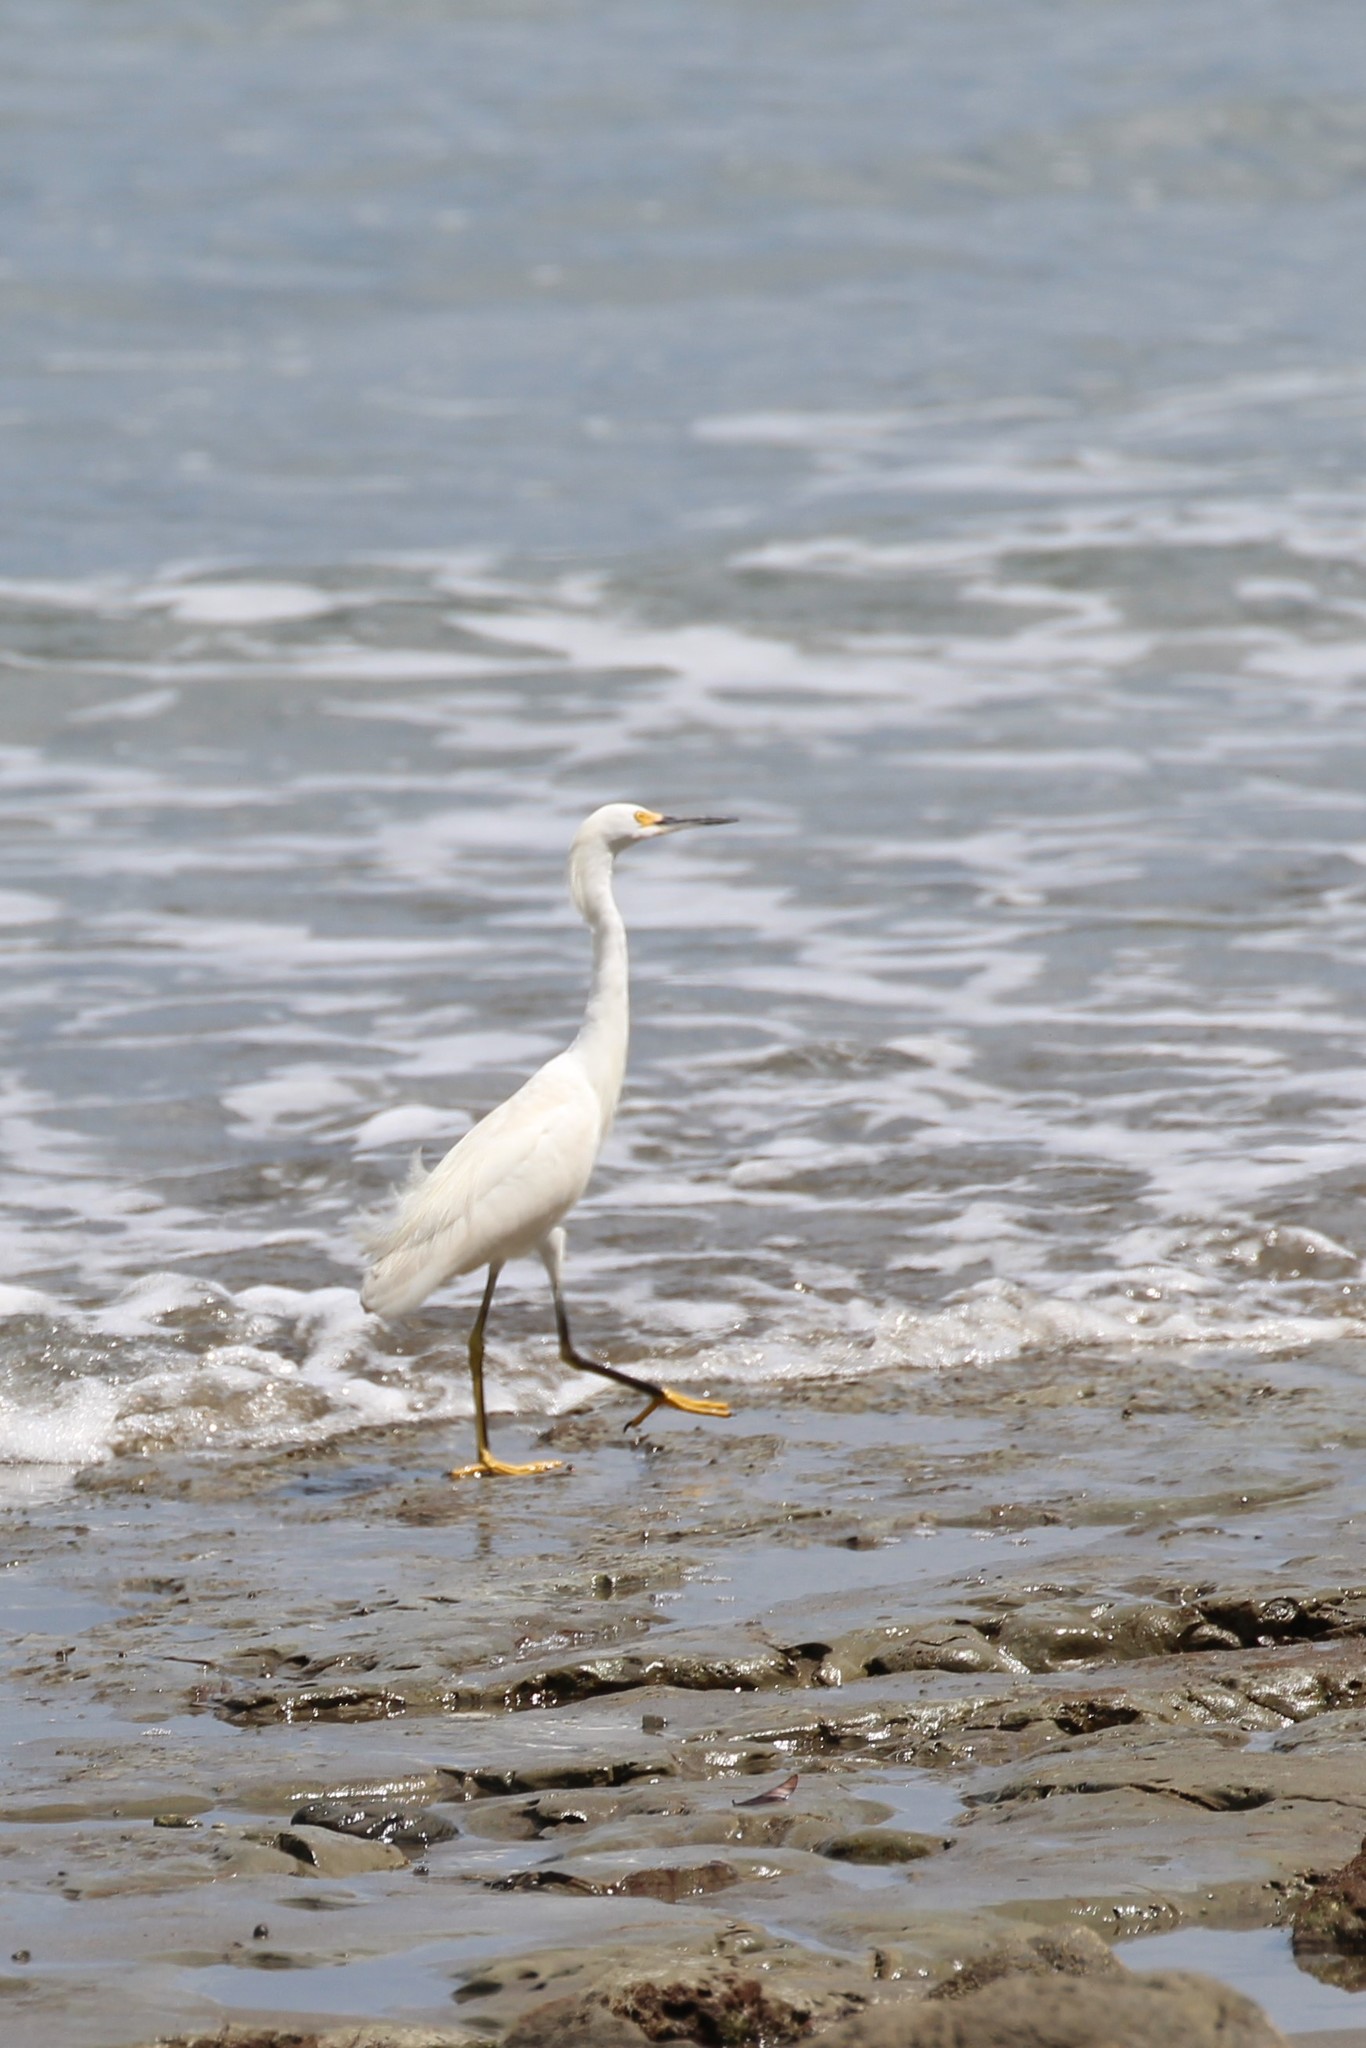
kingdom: Animalia
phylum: Chordata
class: Aves
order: Pelecaniformes
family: Ardeidae
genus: Egretta
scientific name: Egretta thula
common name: Snowy egret
